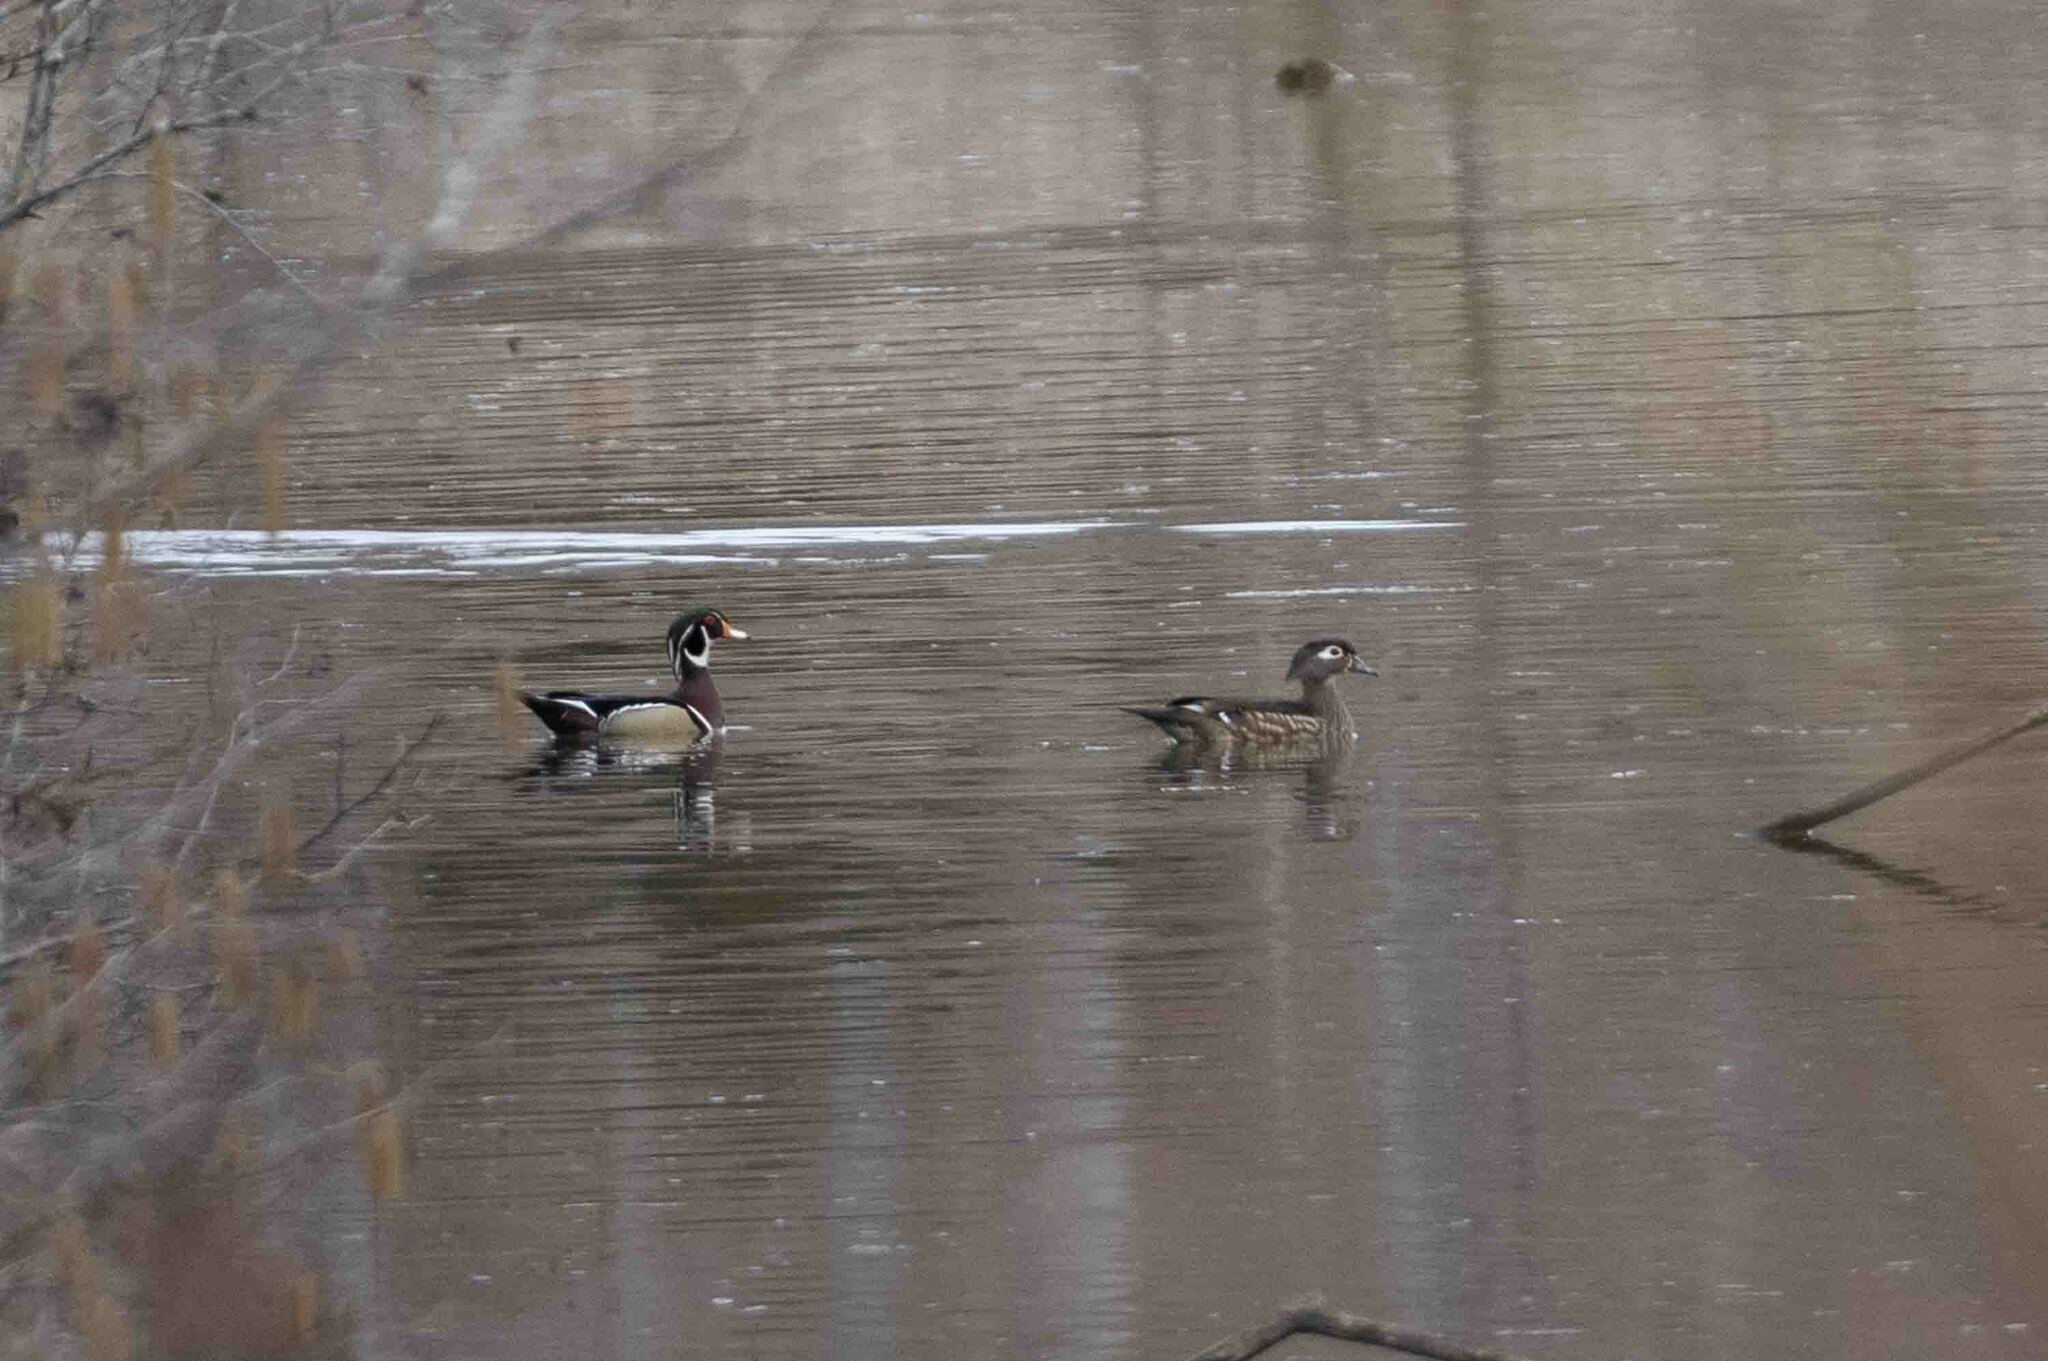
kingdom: Animalia
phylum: Chordata
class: Aves
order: Anseriformes
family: Anatidae
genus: Aix
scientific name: Aix sponsa
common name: Wood duck
